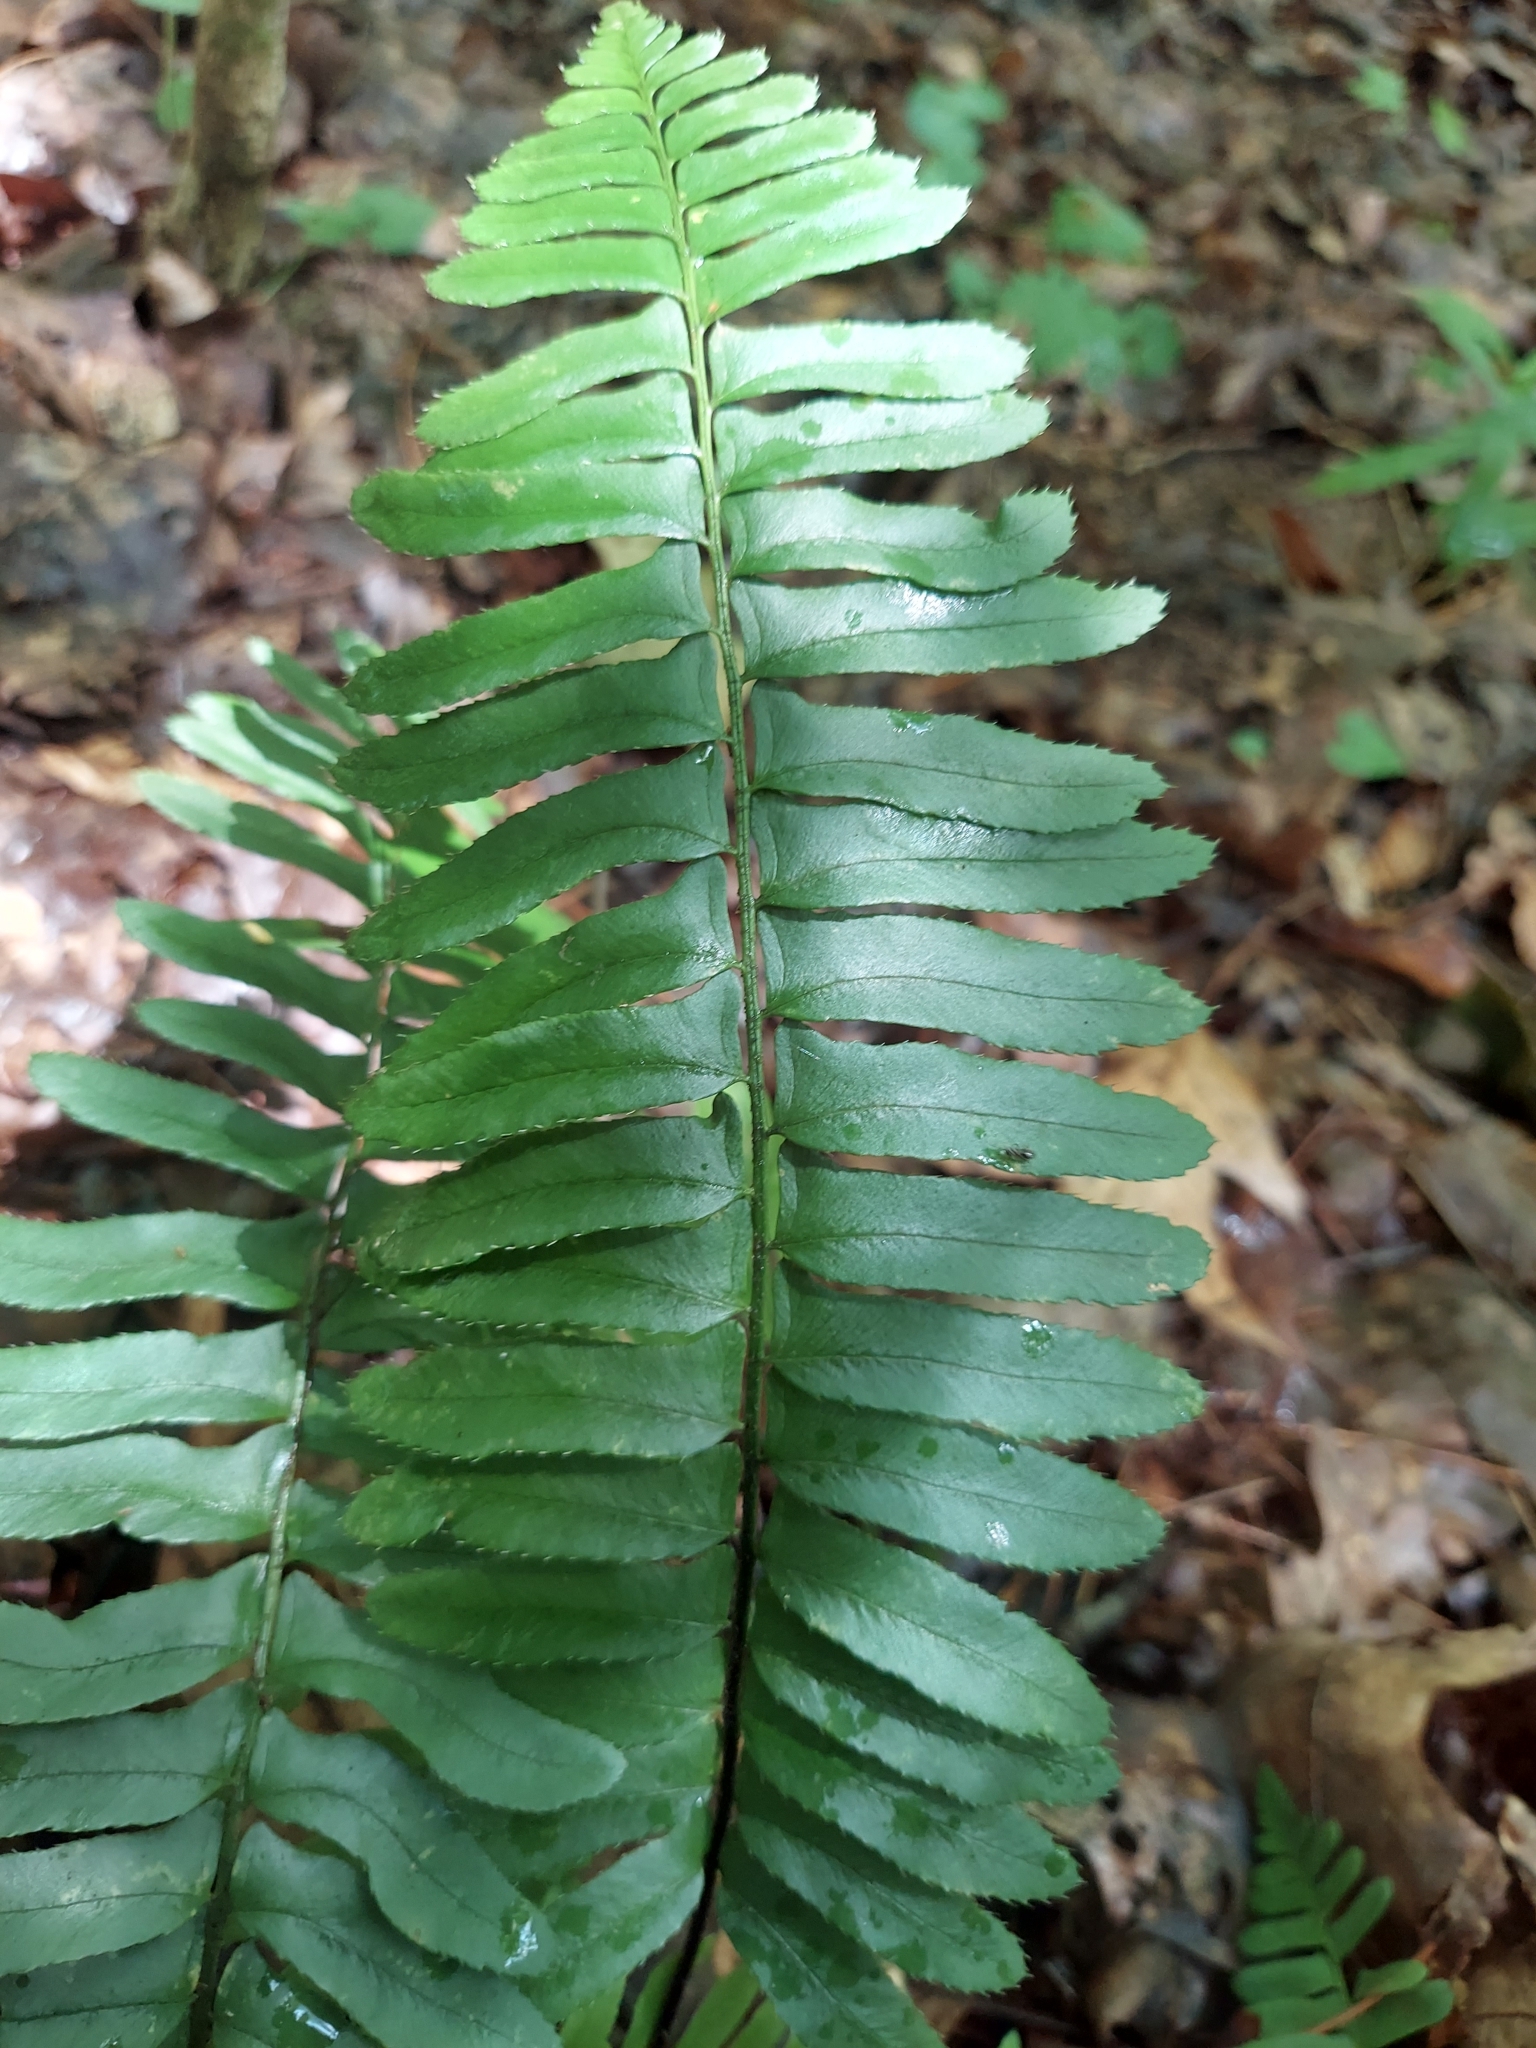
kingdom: Plantae
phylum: Tracheophyta
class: Polypodiopsida
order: Polypodiales
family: Dryopteridaceae
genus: Polystichum
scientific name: Polystichum acrostichoides
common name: Christmas fern
